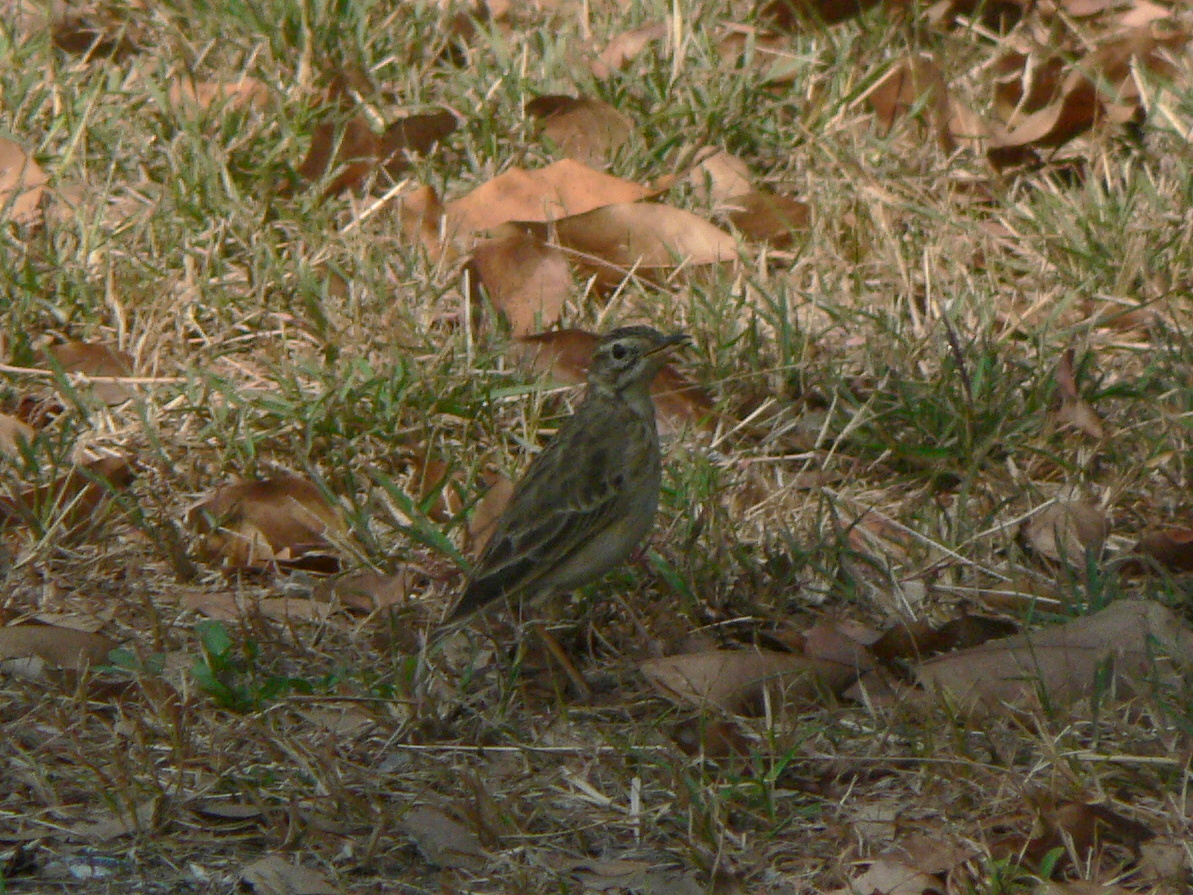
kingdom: Animalia
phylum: Chordata
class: Aves
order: Passeriformes
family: Motacillidae
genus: Anthus
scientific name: Anthus rufulus
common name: Paddyfield pipit
